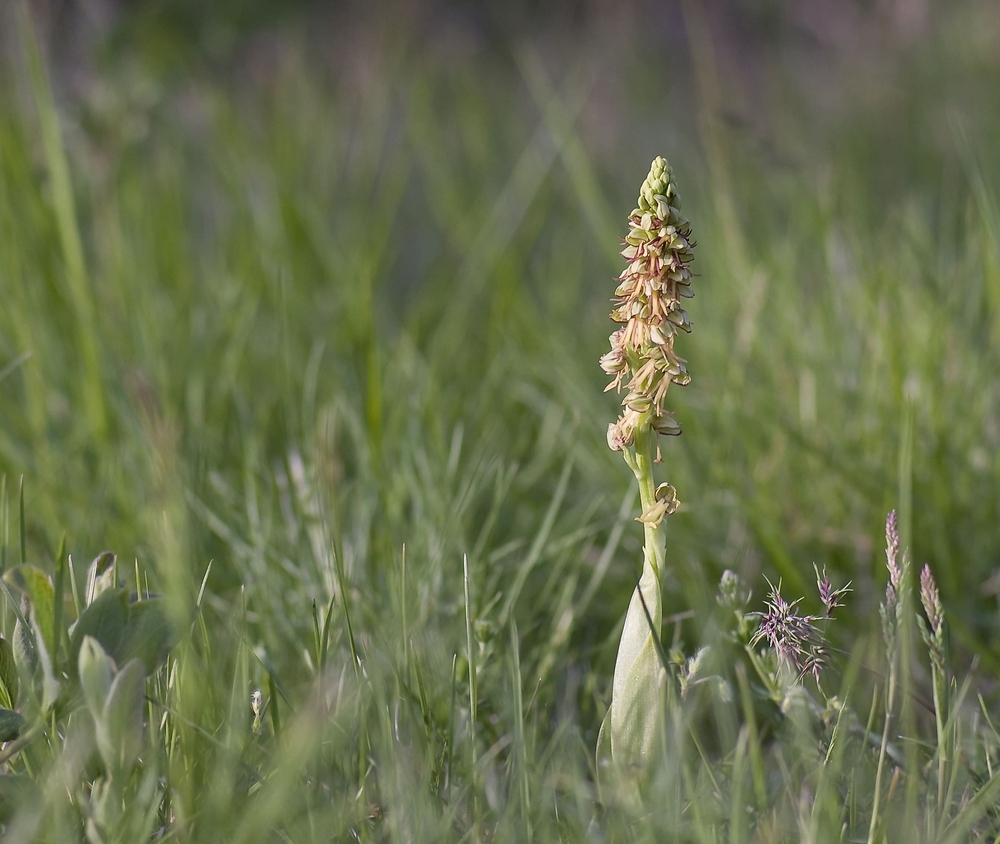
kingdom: Plantae
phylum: Tracheophyta
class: Liliopsida
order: Asparagales
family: Orchidaceae
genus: Orchis
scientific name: Orchis anthropophora
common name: Man orchid
